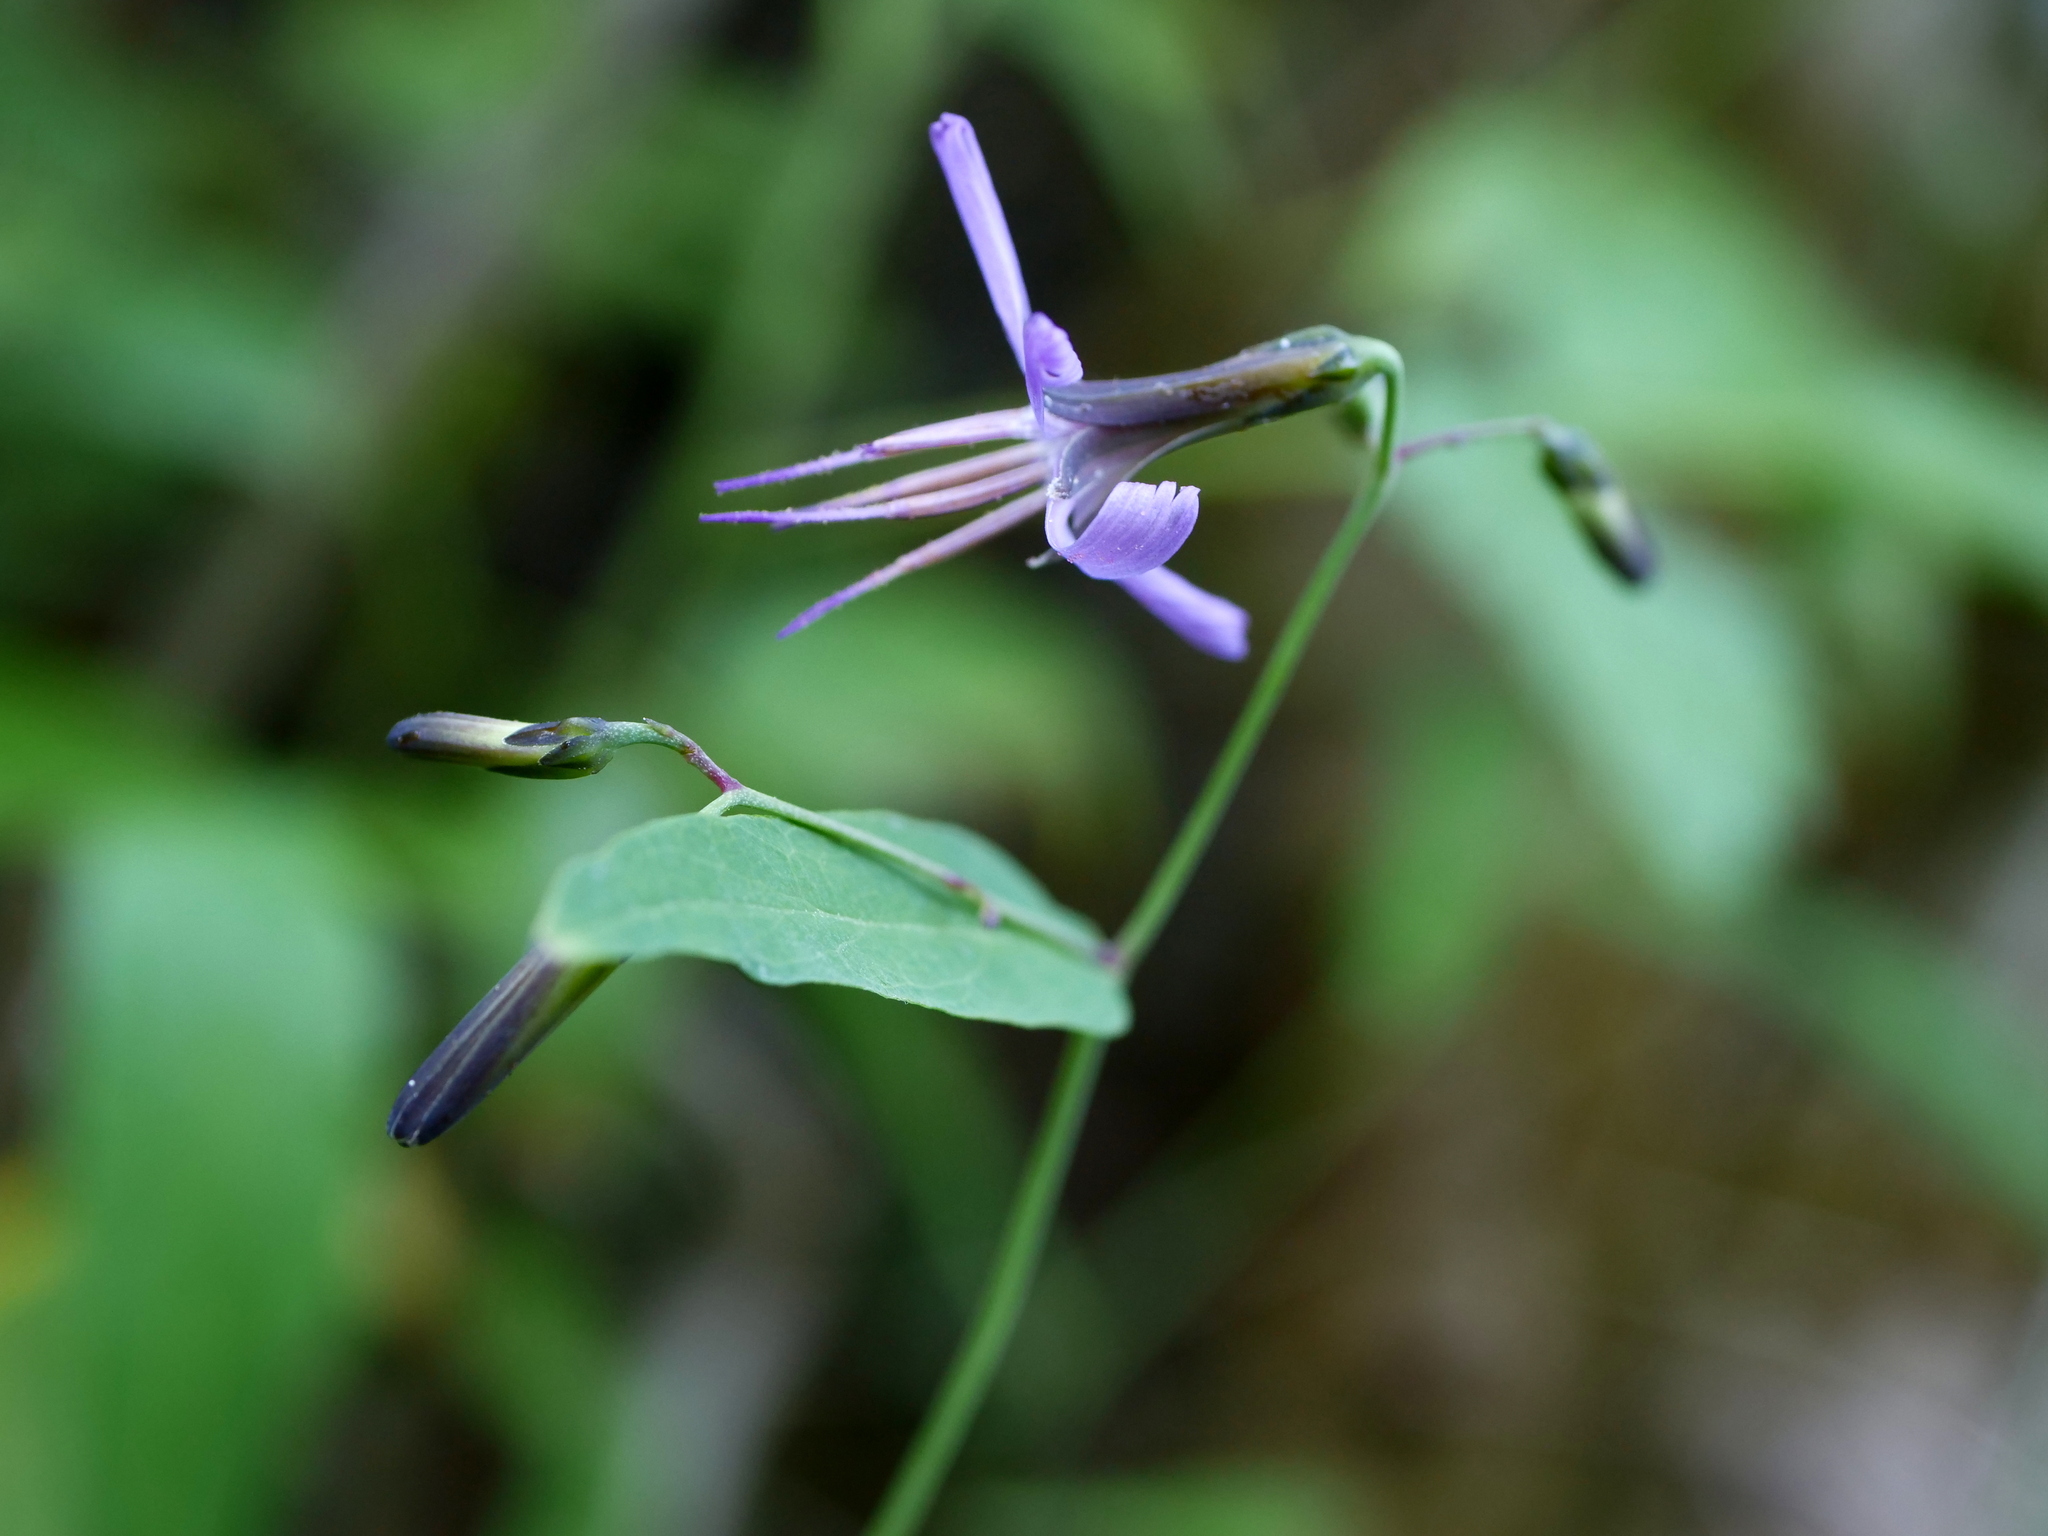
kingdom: Plantae
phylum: Tracheophyta
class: Magnoliopsida
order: Asterales
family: Asteraceae
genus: Prenanthes
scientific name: Prenanthes purpurea
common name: Purple lettuce
